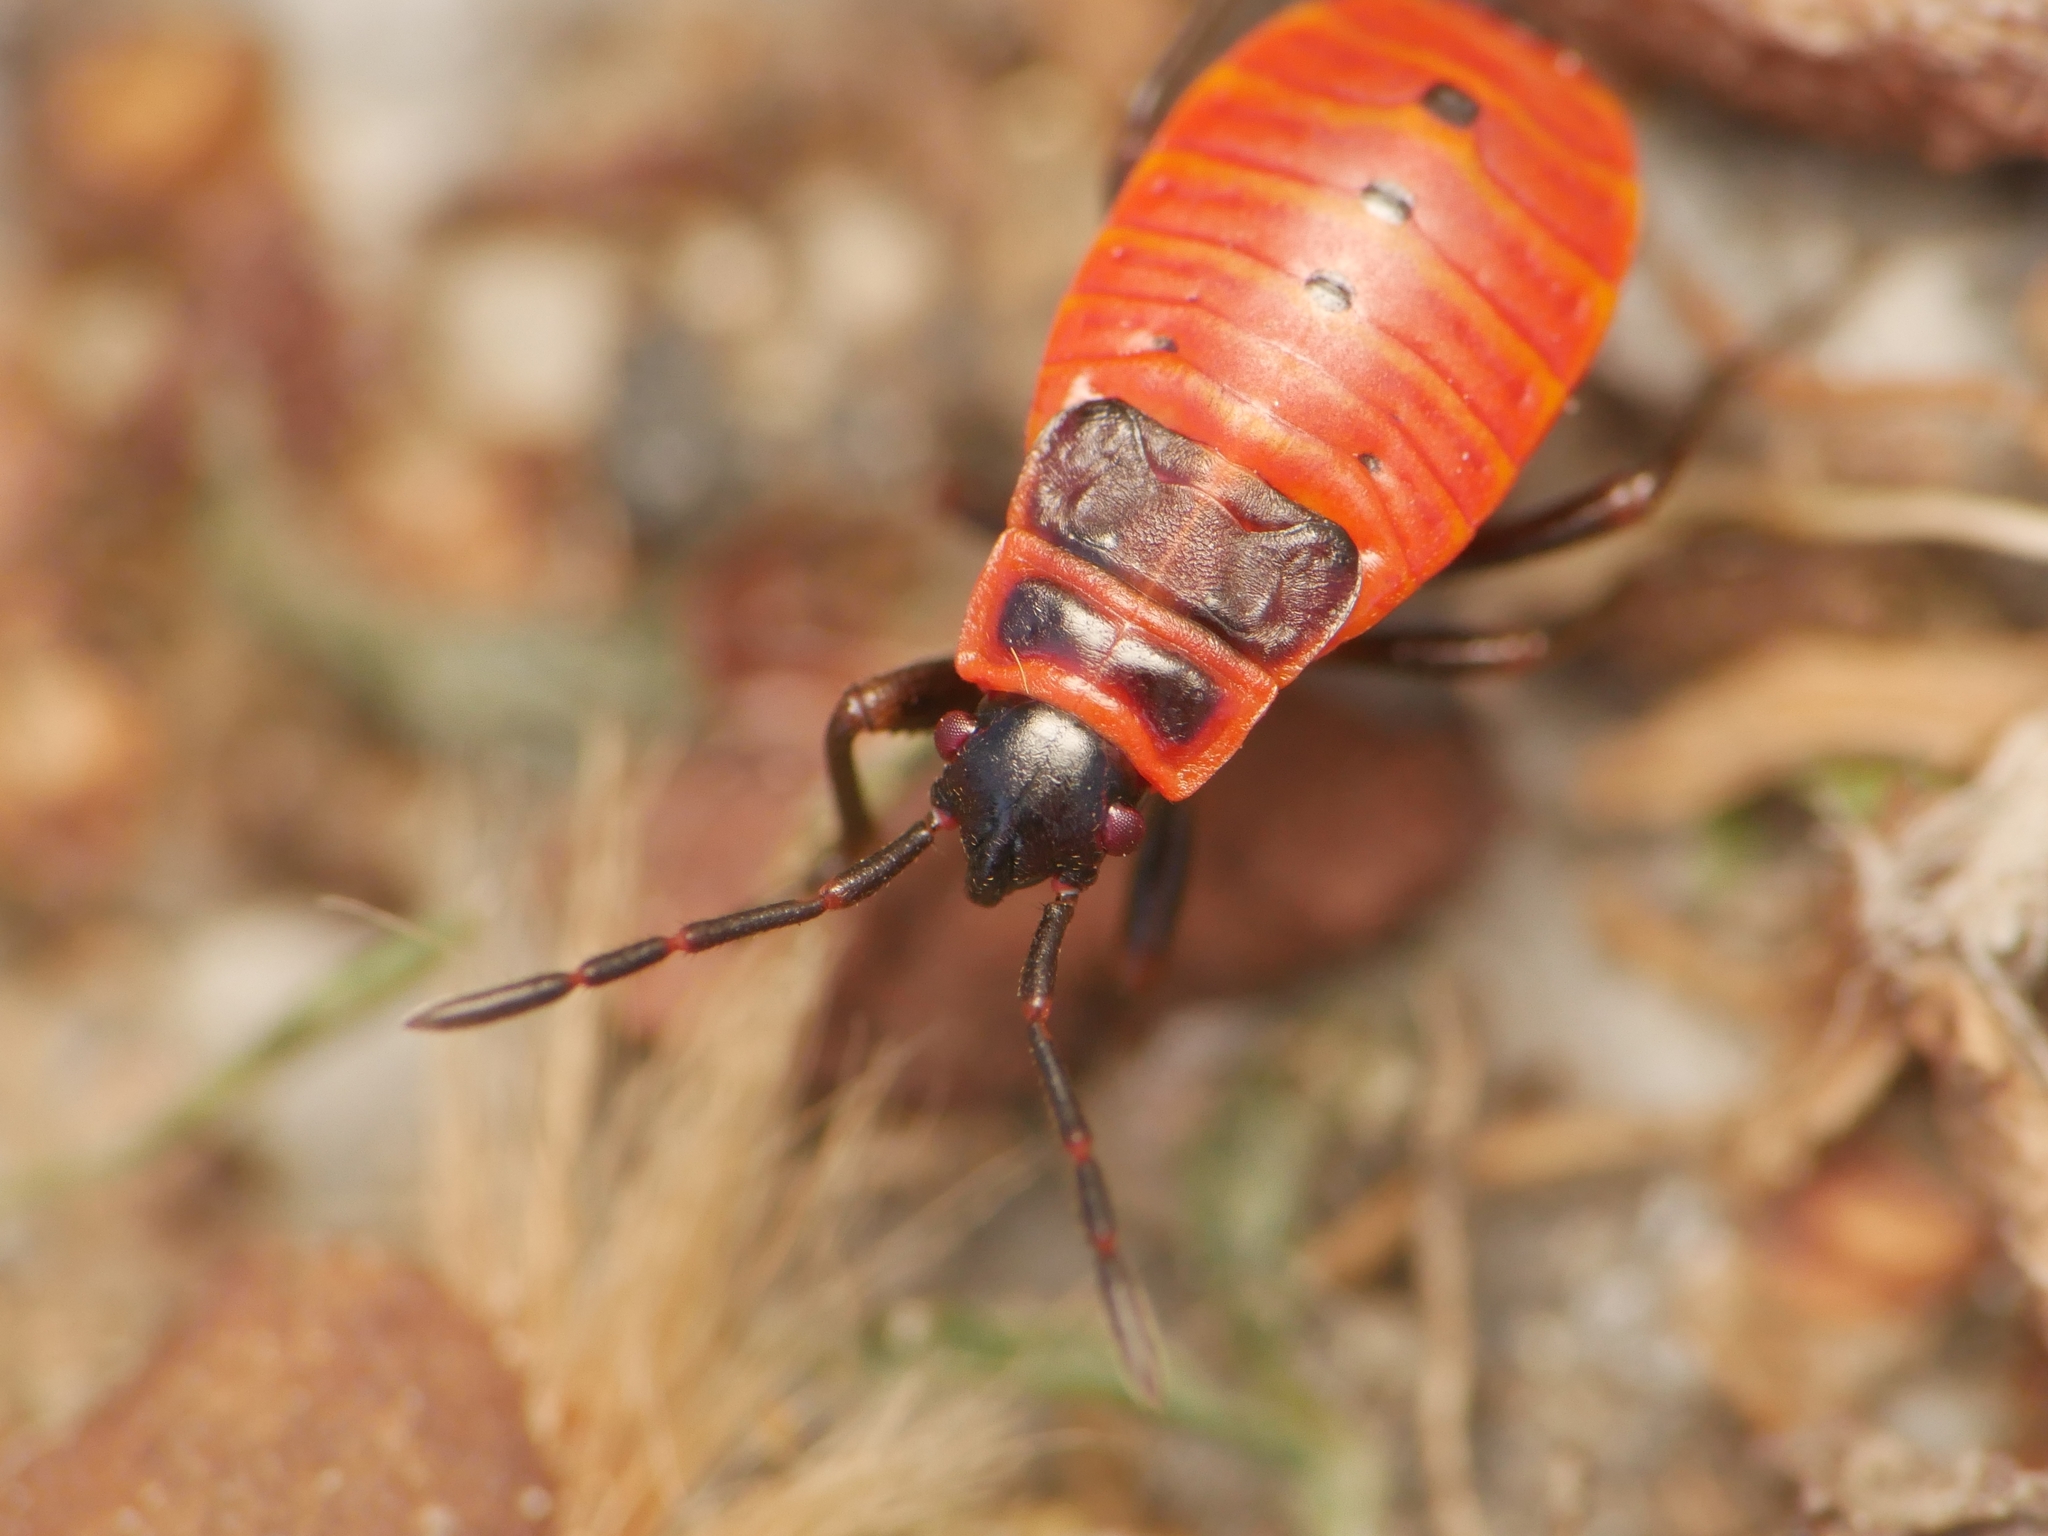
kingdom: Animalia
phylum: Arthropoda
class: Insecta
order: Hemiptera
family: Pyrrhocoridae
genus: Pyrrhocoris
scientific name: Pyrrhocoris apterus
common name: Firebug
